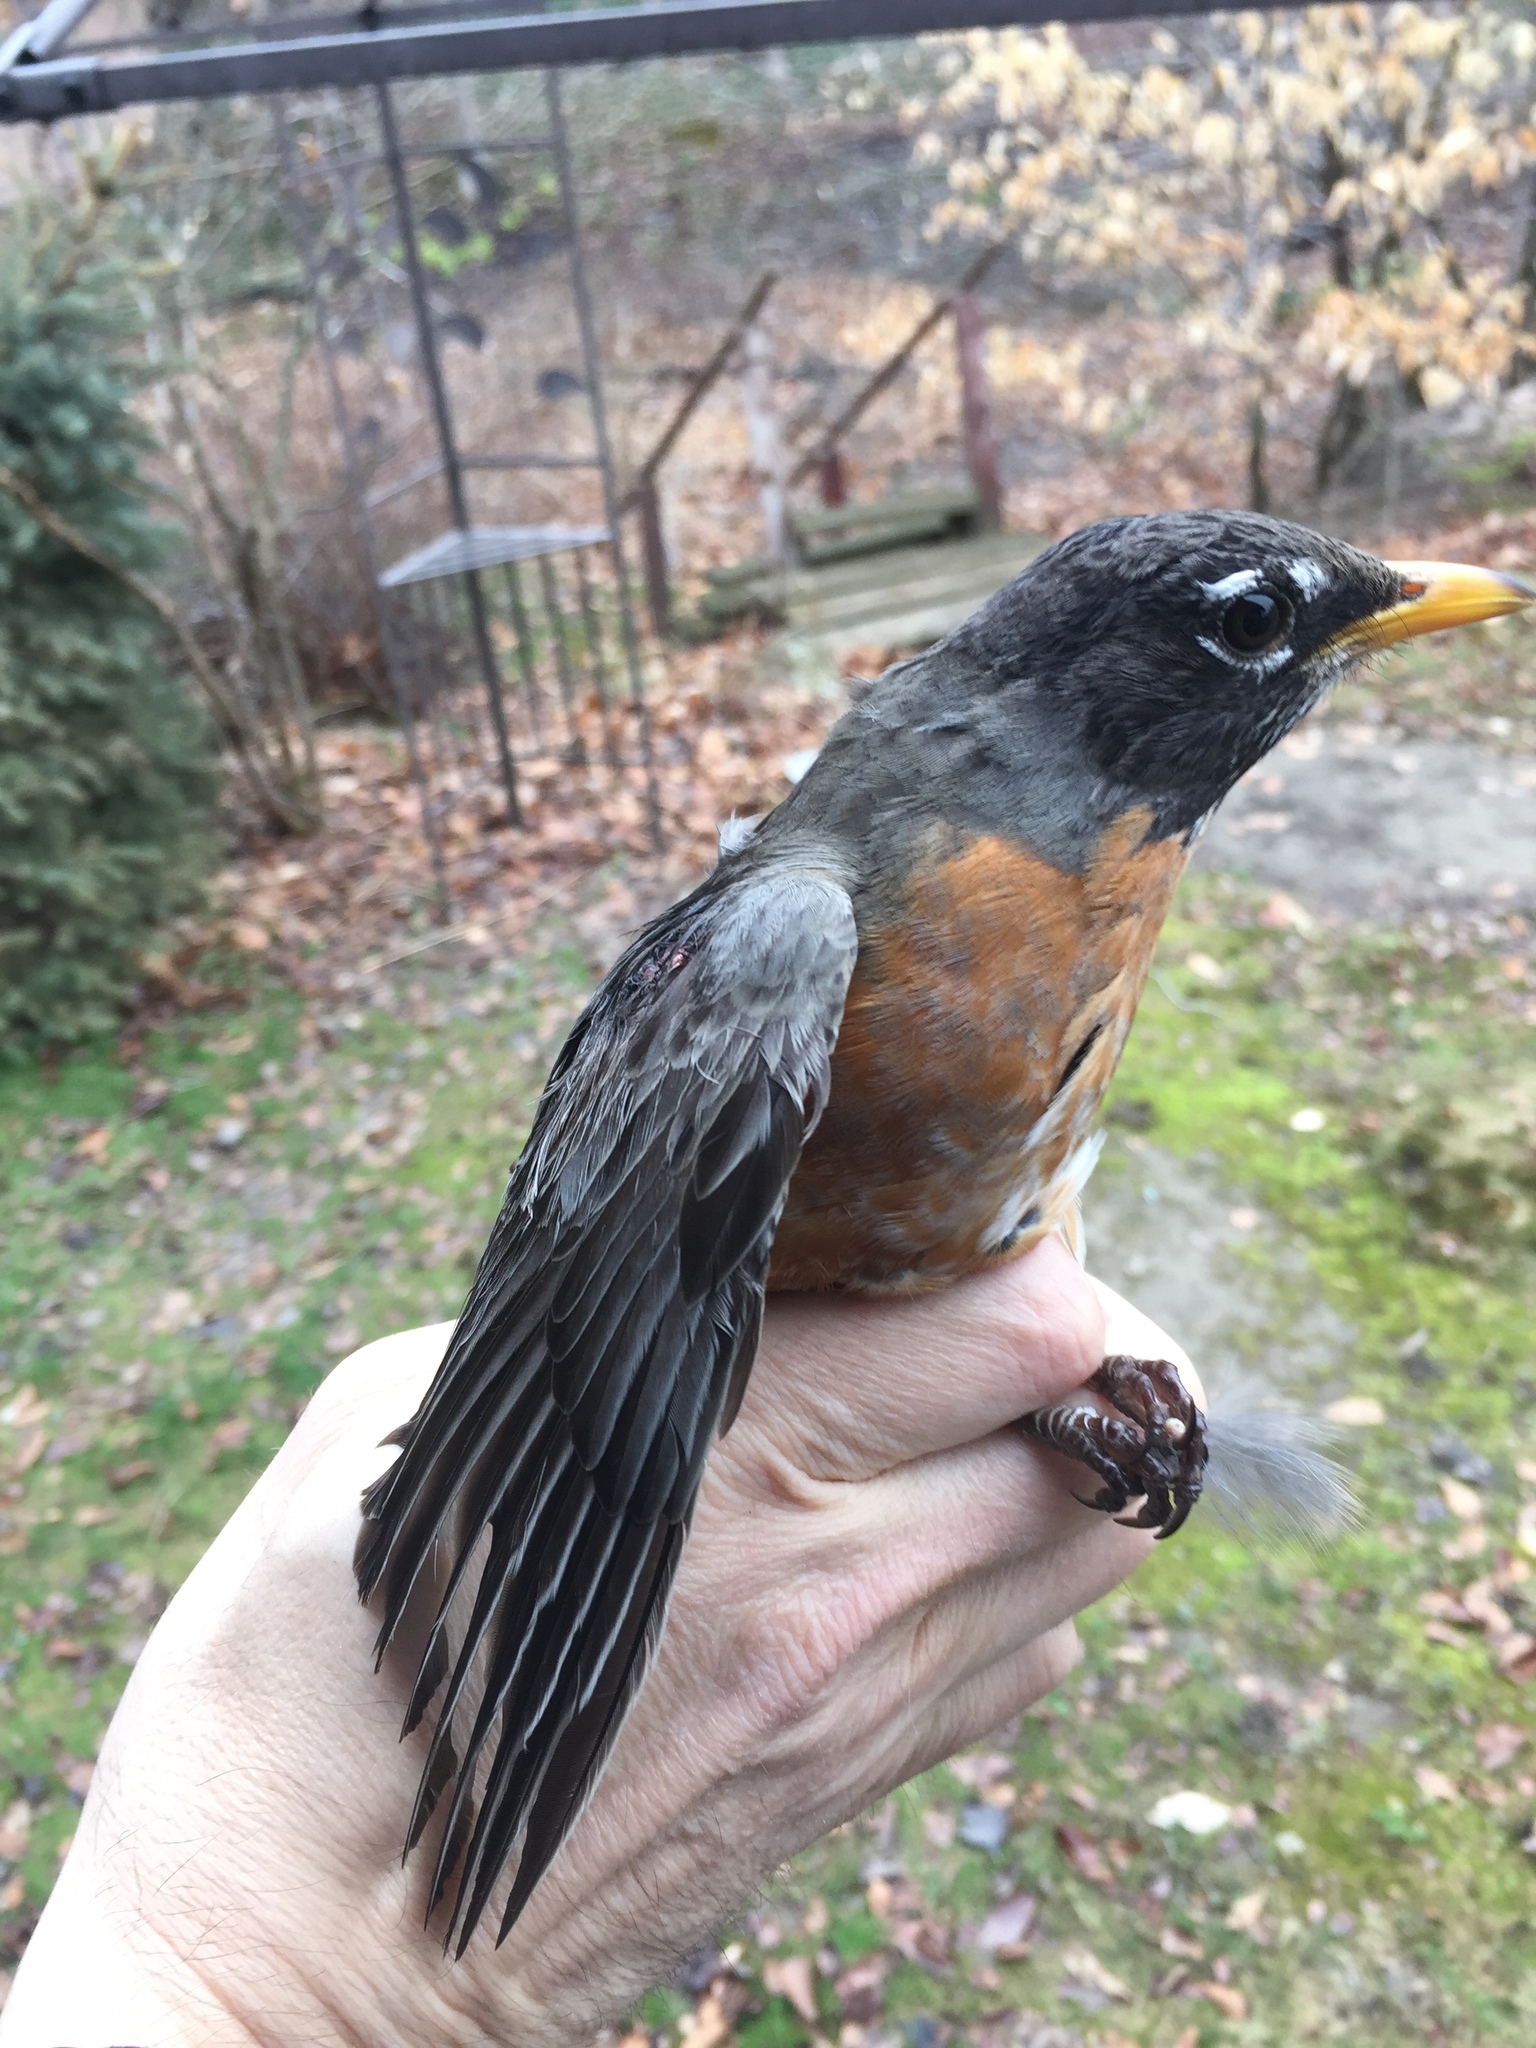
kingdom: Animalia
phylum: Chordata
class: Aves
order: Passeriformes
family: Turdidae
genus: Turdus
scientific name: Turdus migratorius
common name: American robin
